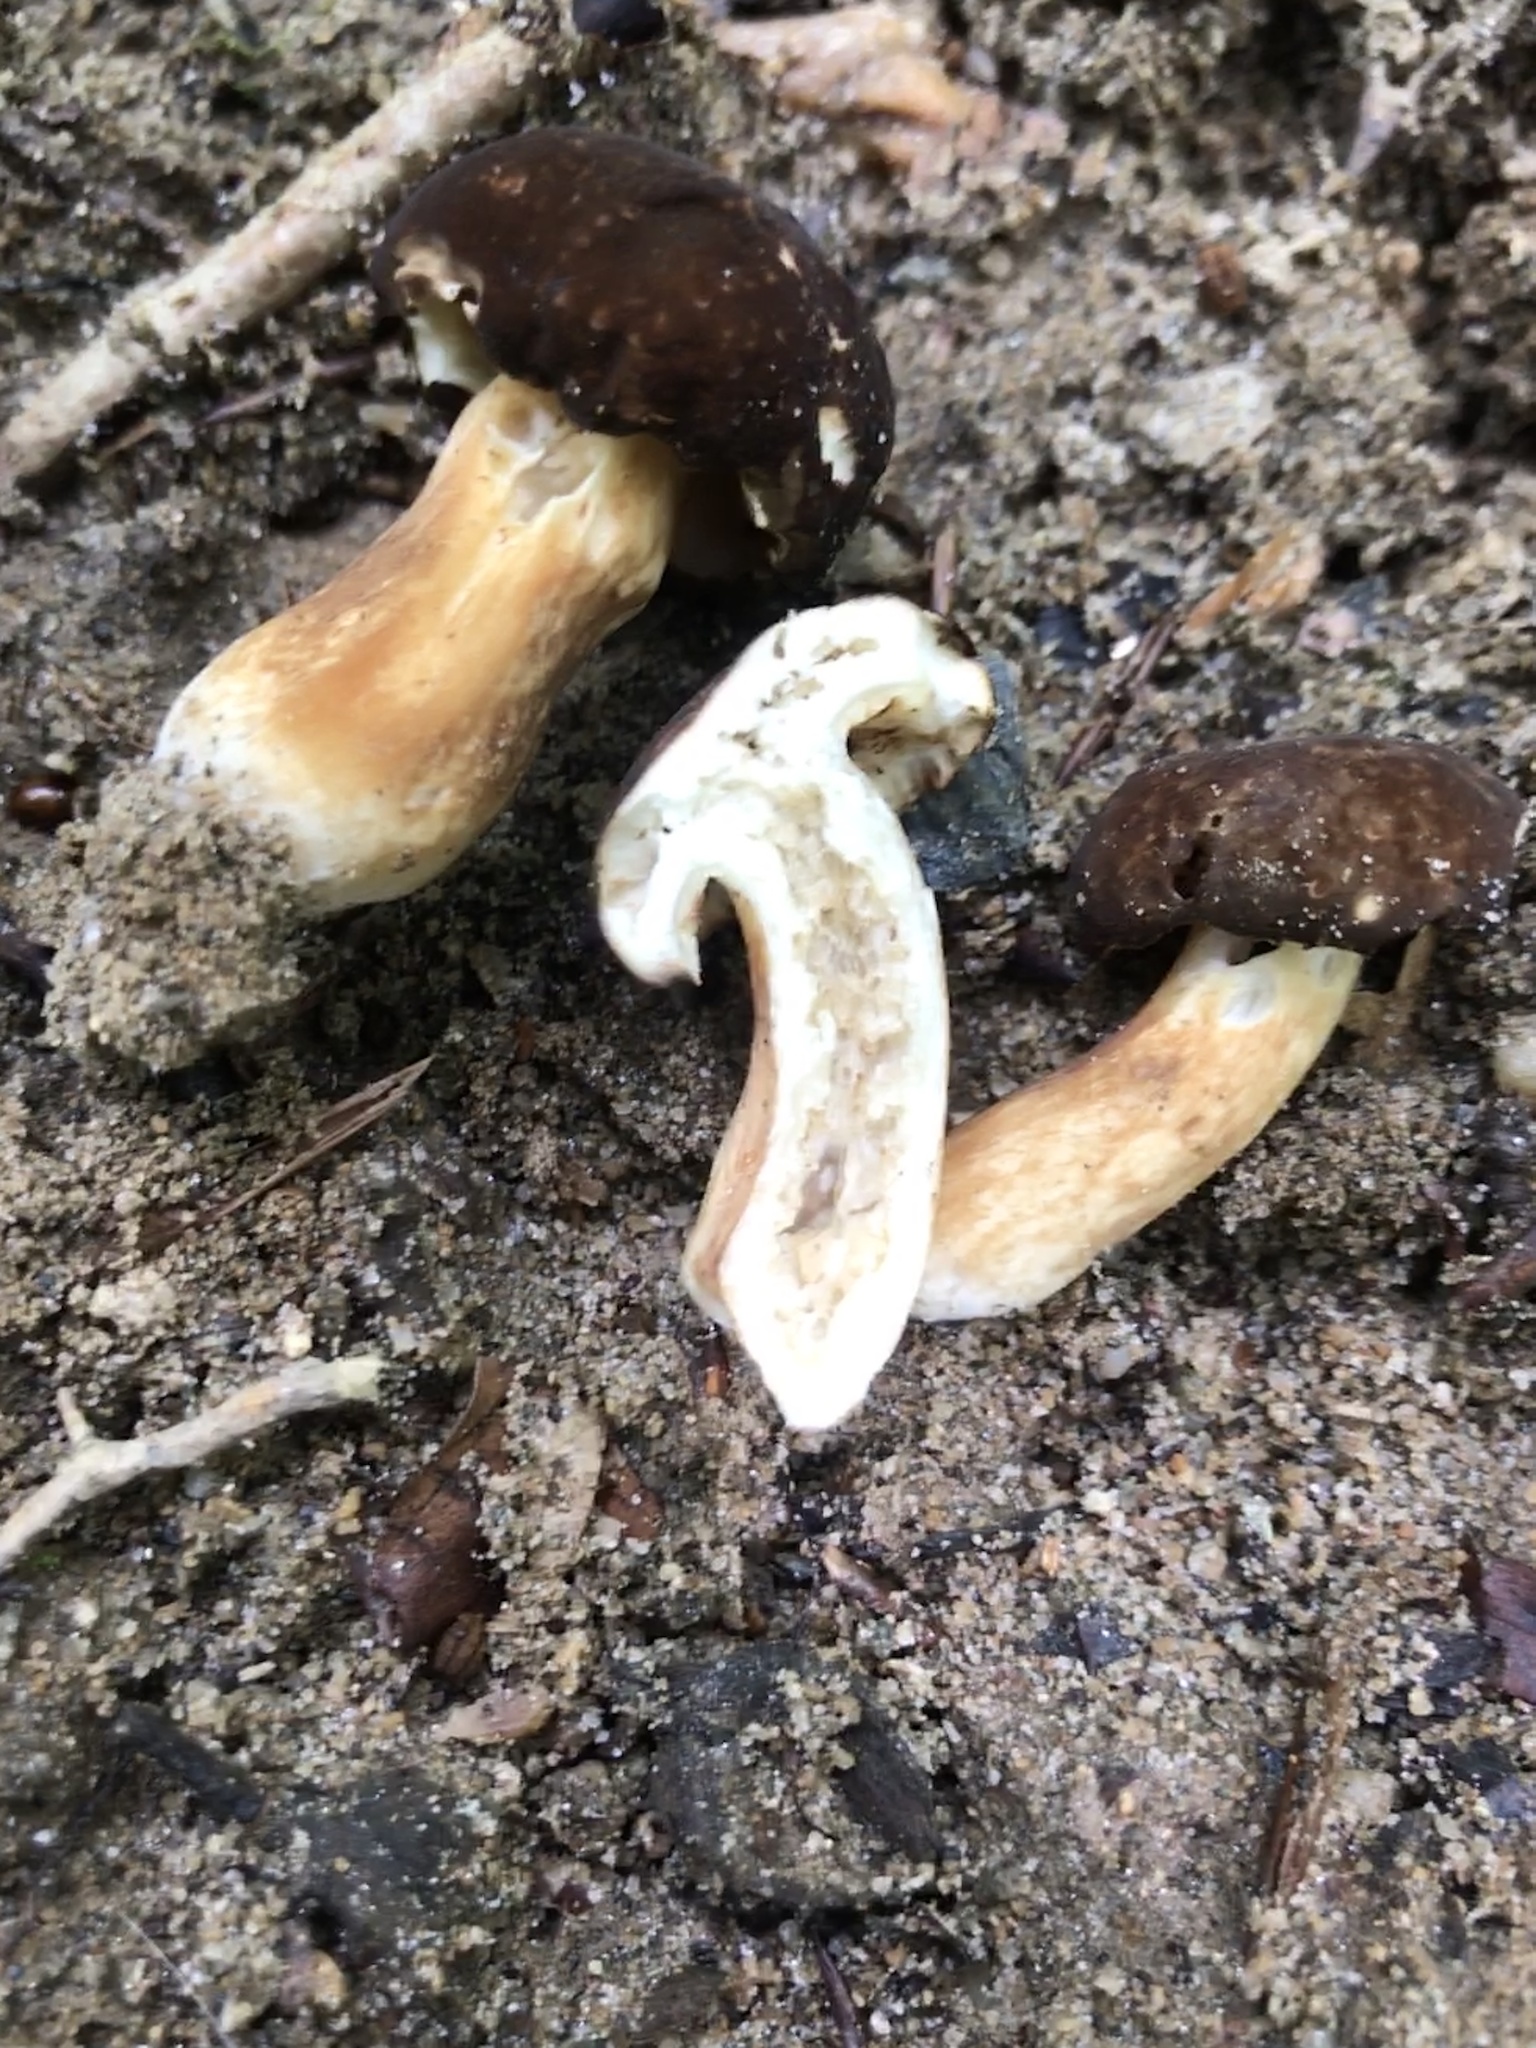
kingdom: Fungi
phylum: Basidiomycota
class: Agaricomycetes
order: Boletales
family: Boletaceae
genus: Xanthoconium
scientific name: Xanthoconium affine
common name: Spotted bolete
